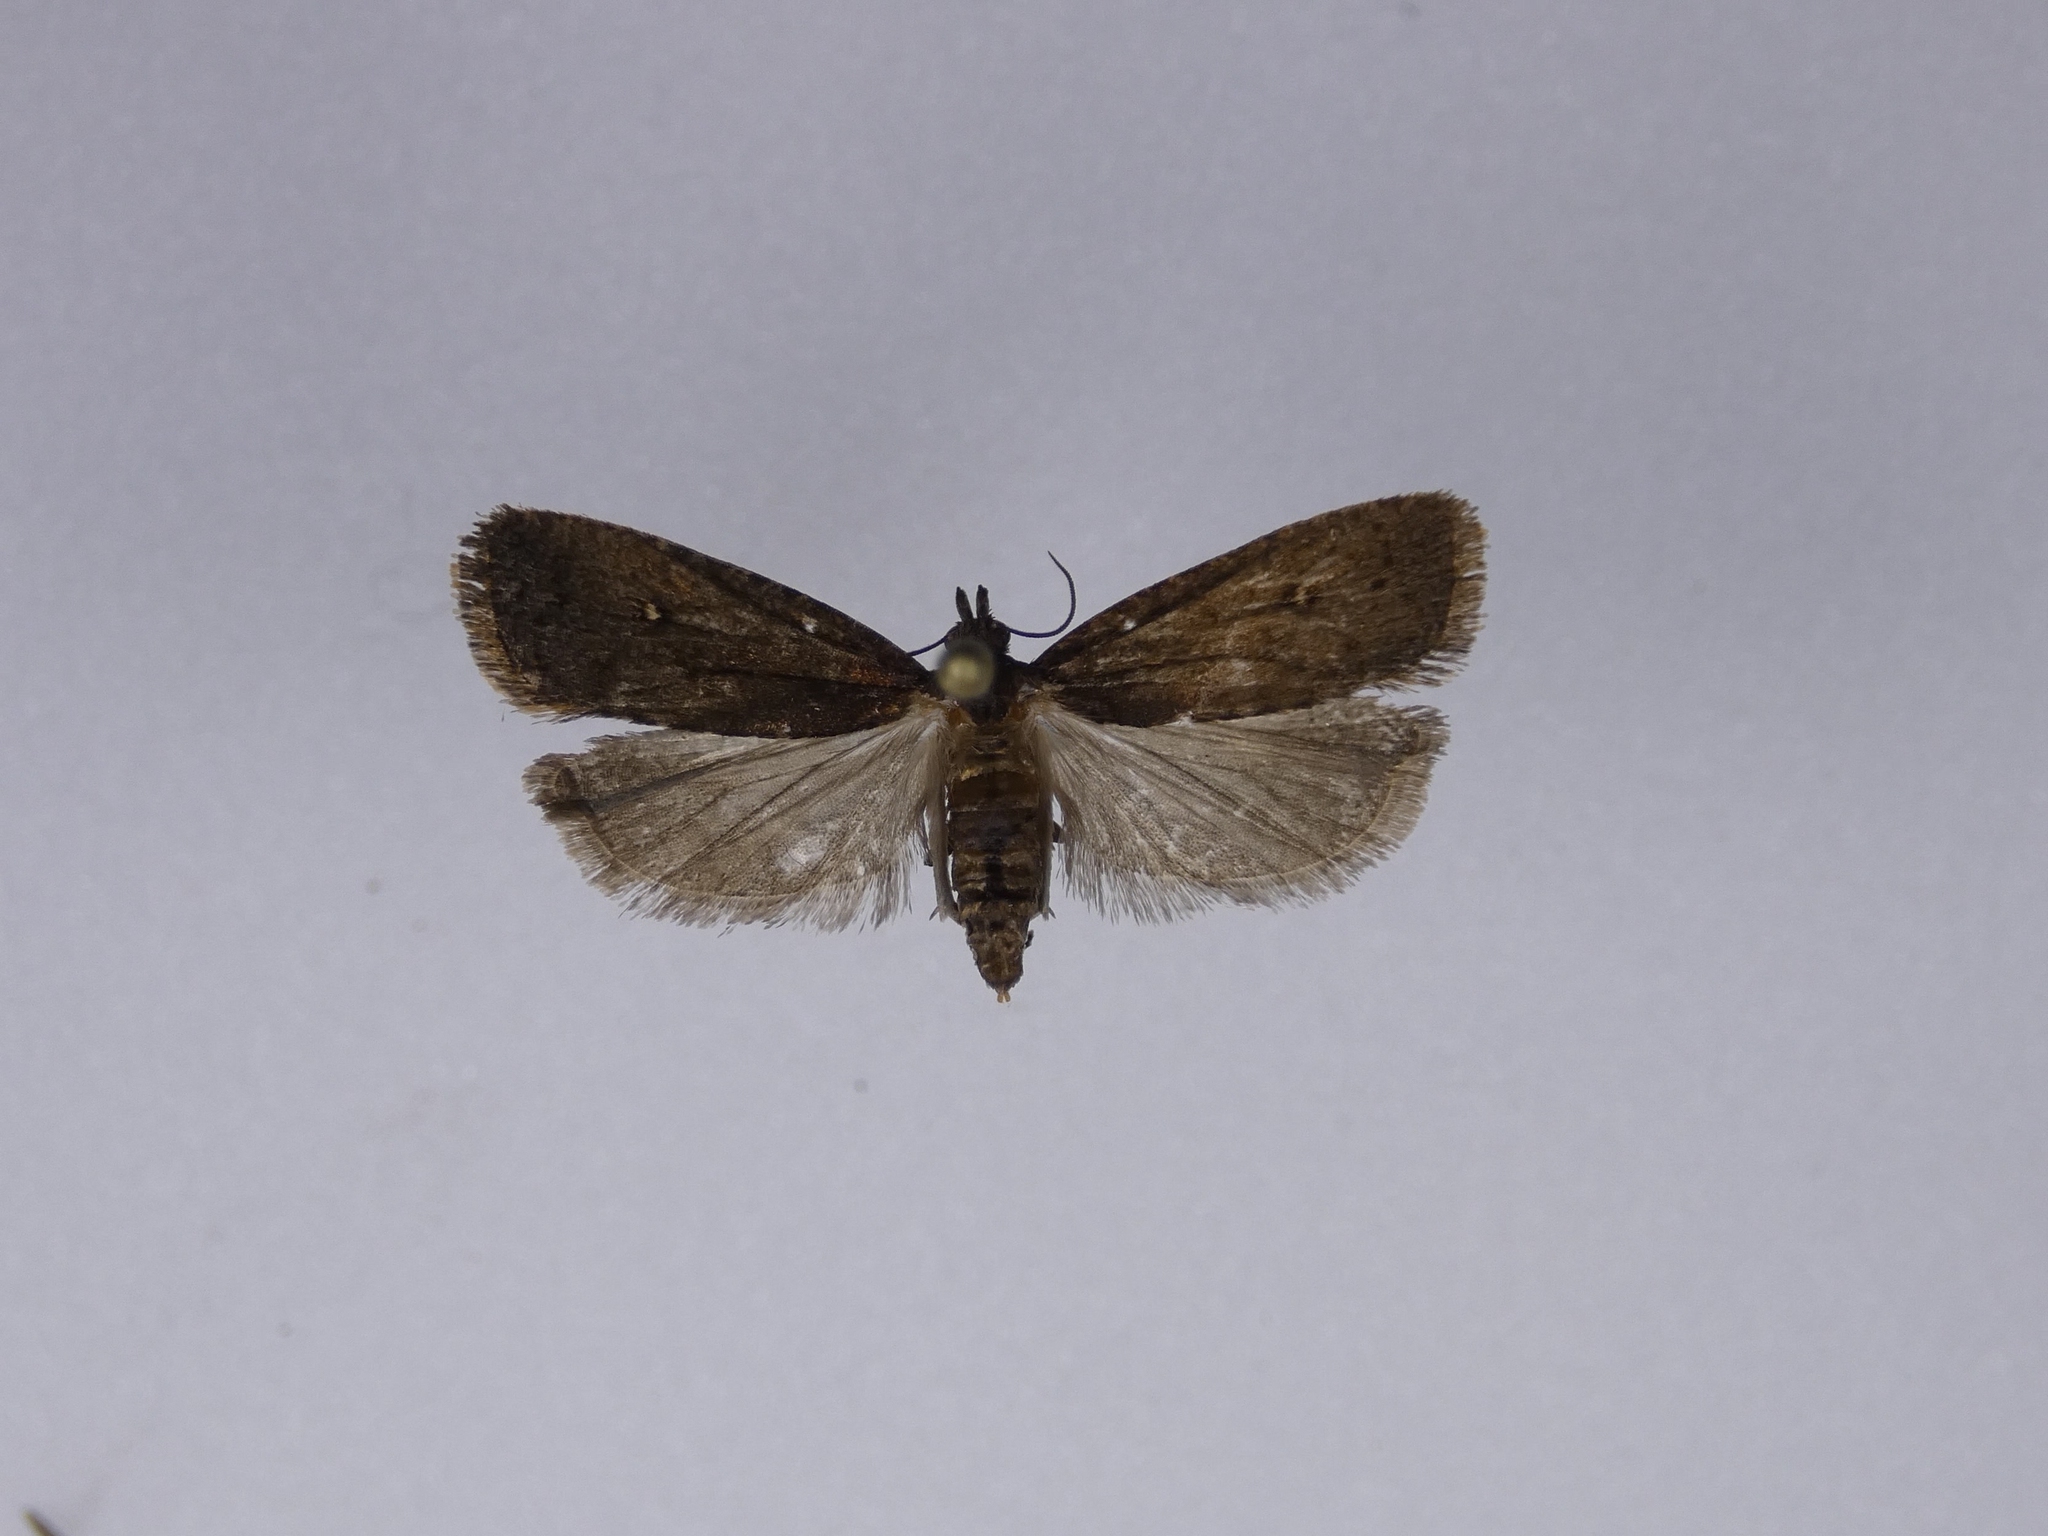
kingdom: Animalia
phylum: Arthropoda
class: Insecta
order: Lepidoptera
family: Tortricidae
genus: Cryptaspasma
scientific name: Cryptaspasma querula
